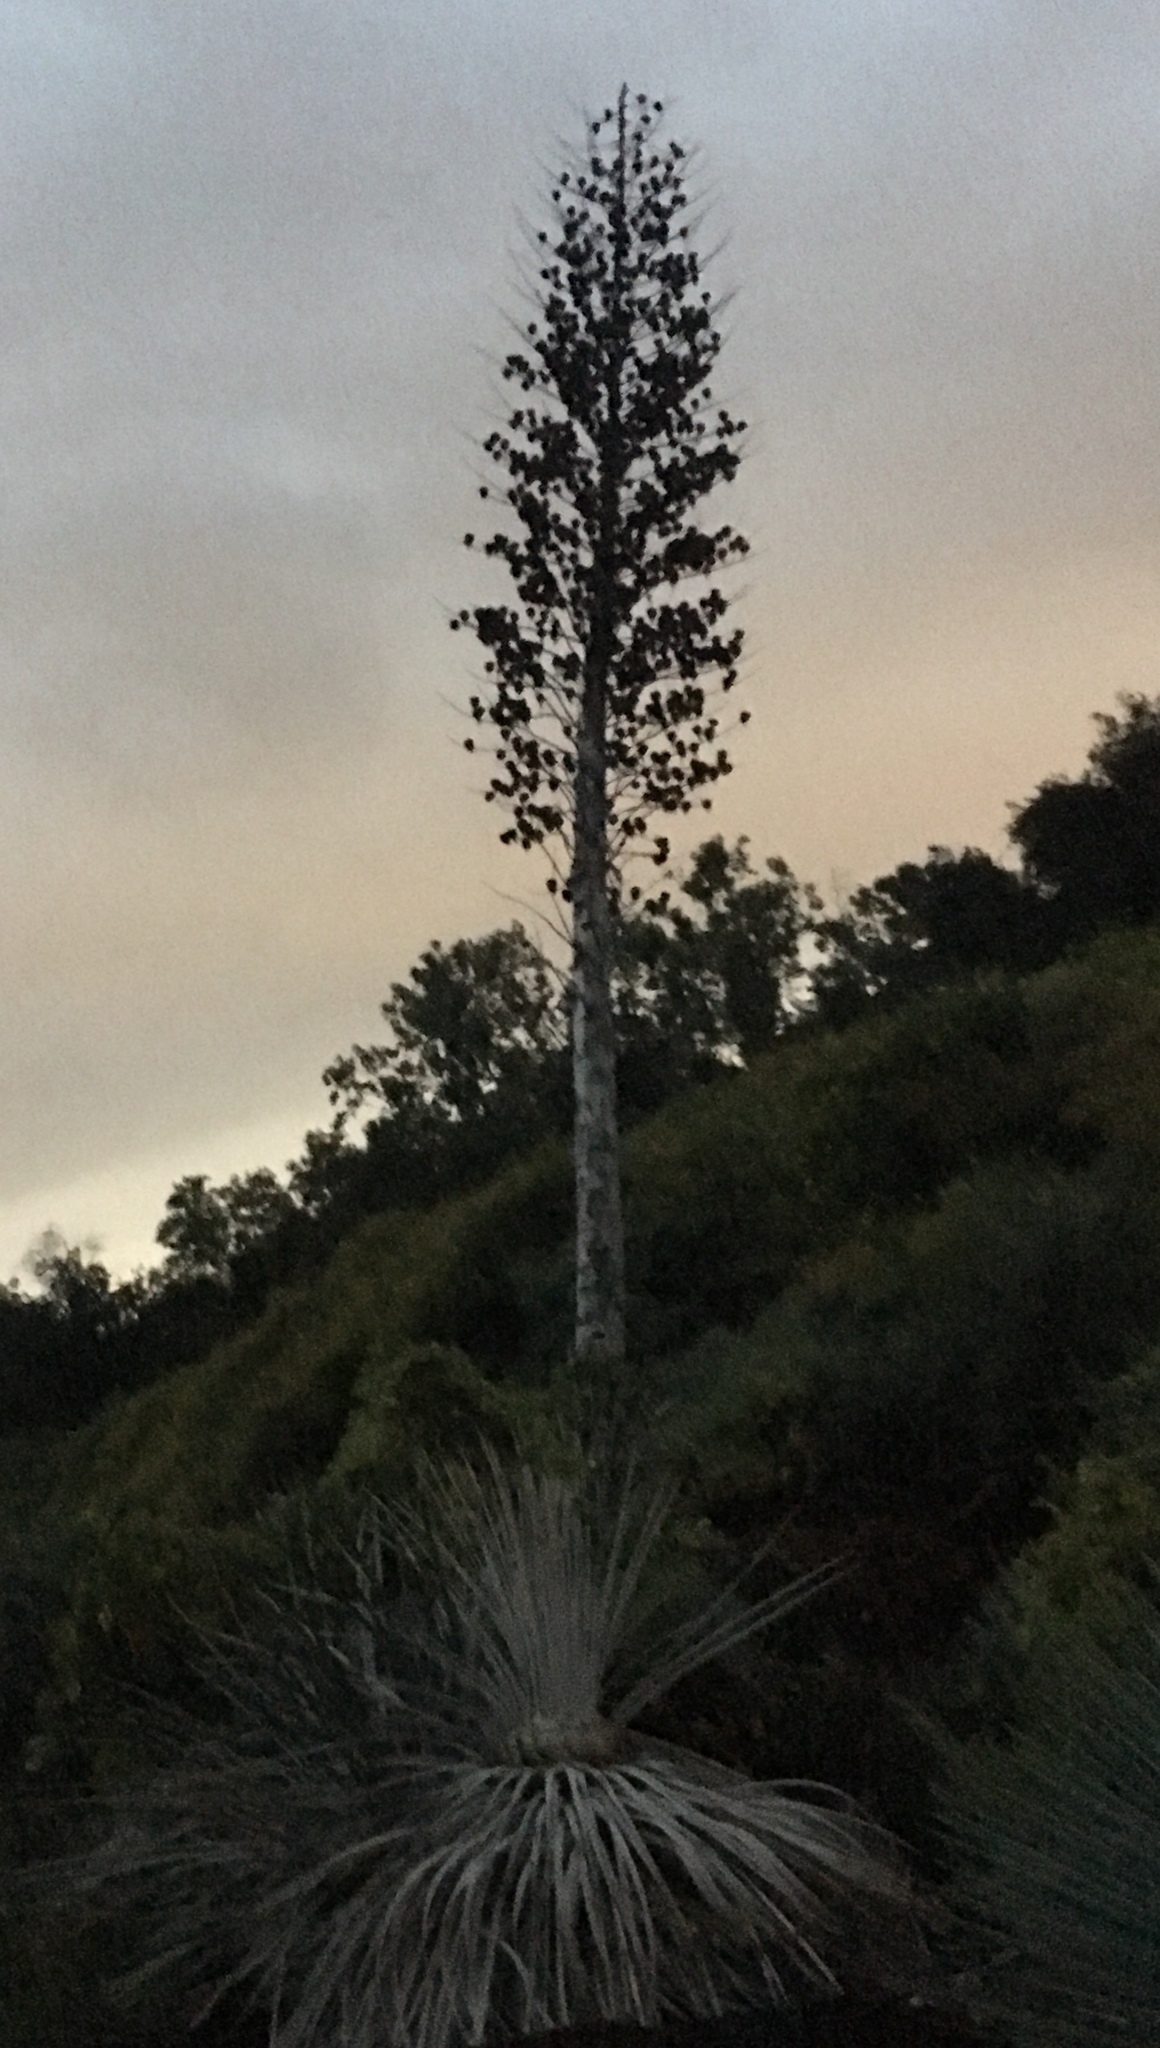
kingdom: Plantae
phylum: Tracheophyta
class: Liliopsida
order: Asparagales
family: Asparagaceae
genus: Hesperoyucca
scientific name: Hesperoyucca whipplei
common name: Our lord's-candle
